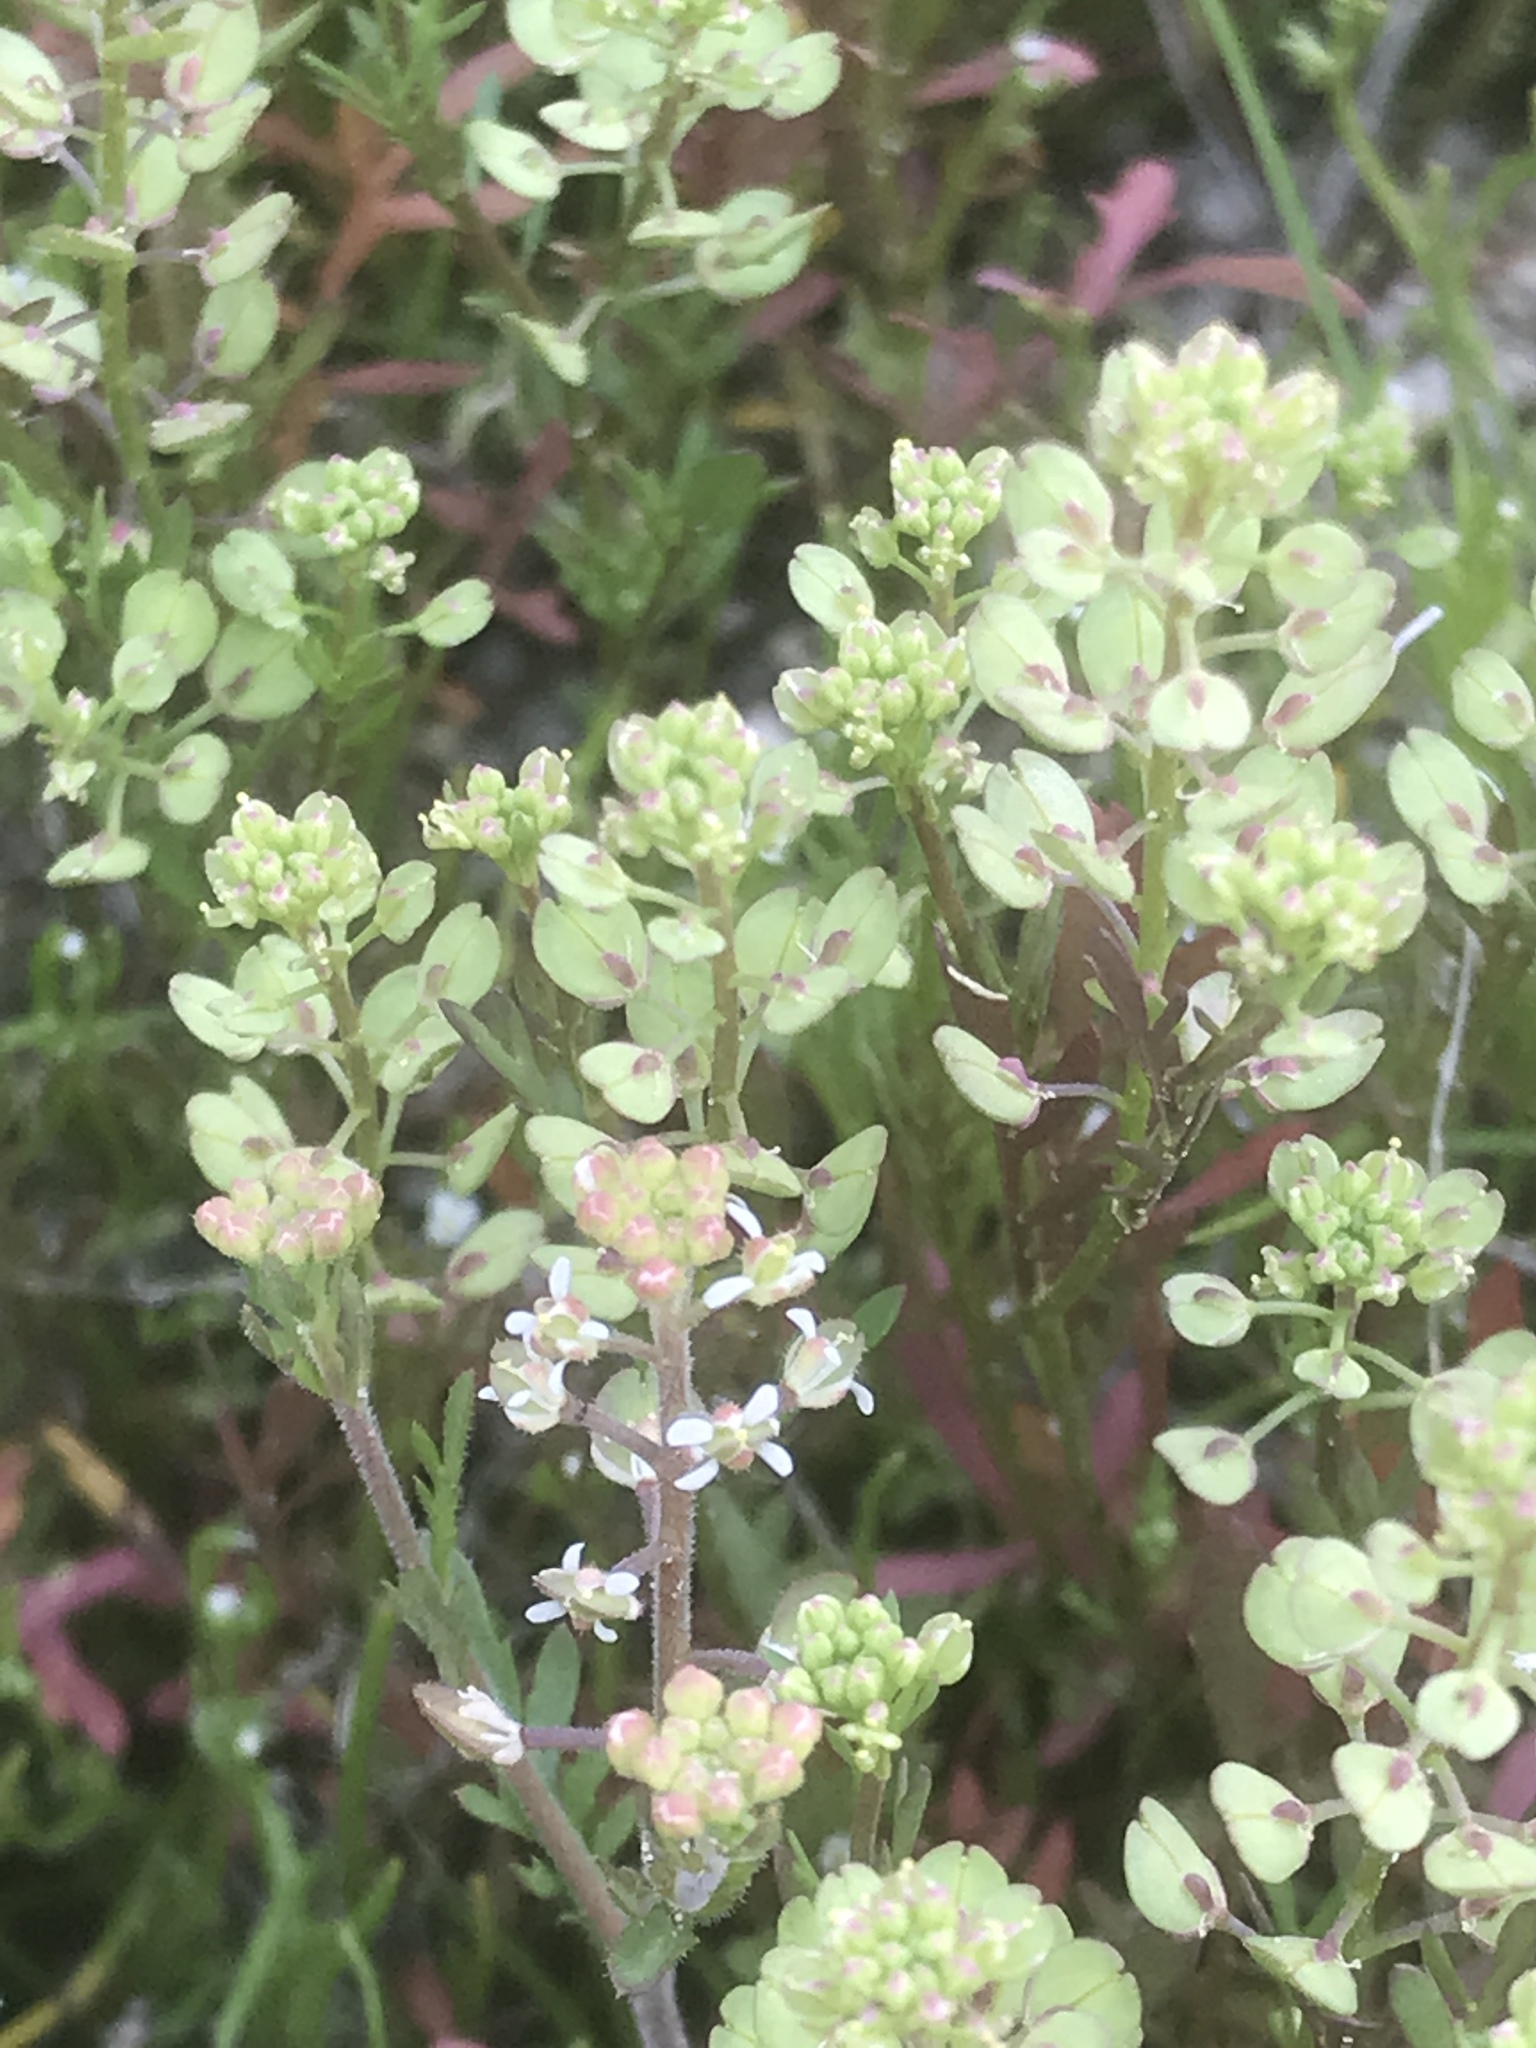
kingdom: Plantae
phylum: Tracheophyta
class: Magnoliopsida
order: Brassicales
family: Brassicaceae
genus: Lepidium
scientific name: Lepidium lasiocarpum
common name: Hairy-pod pepperwort
